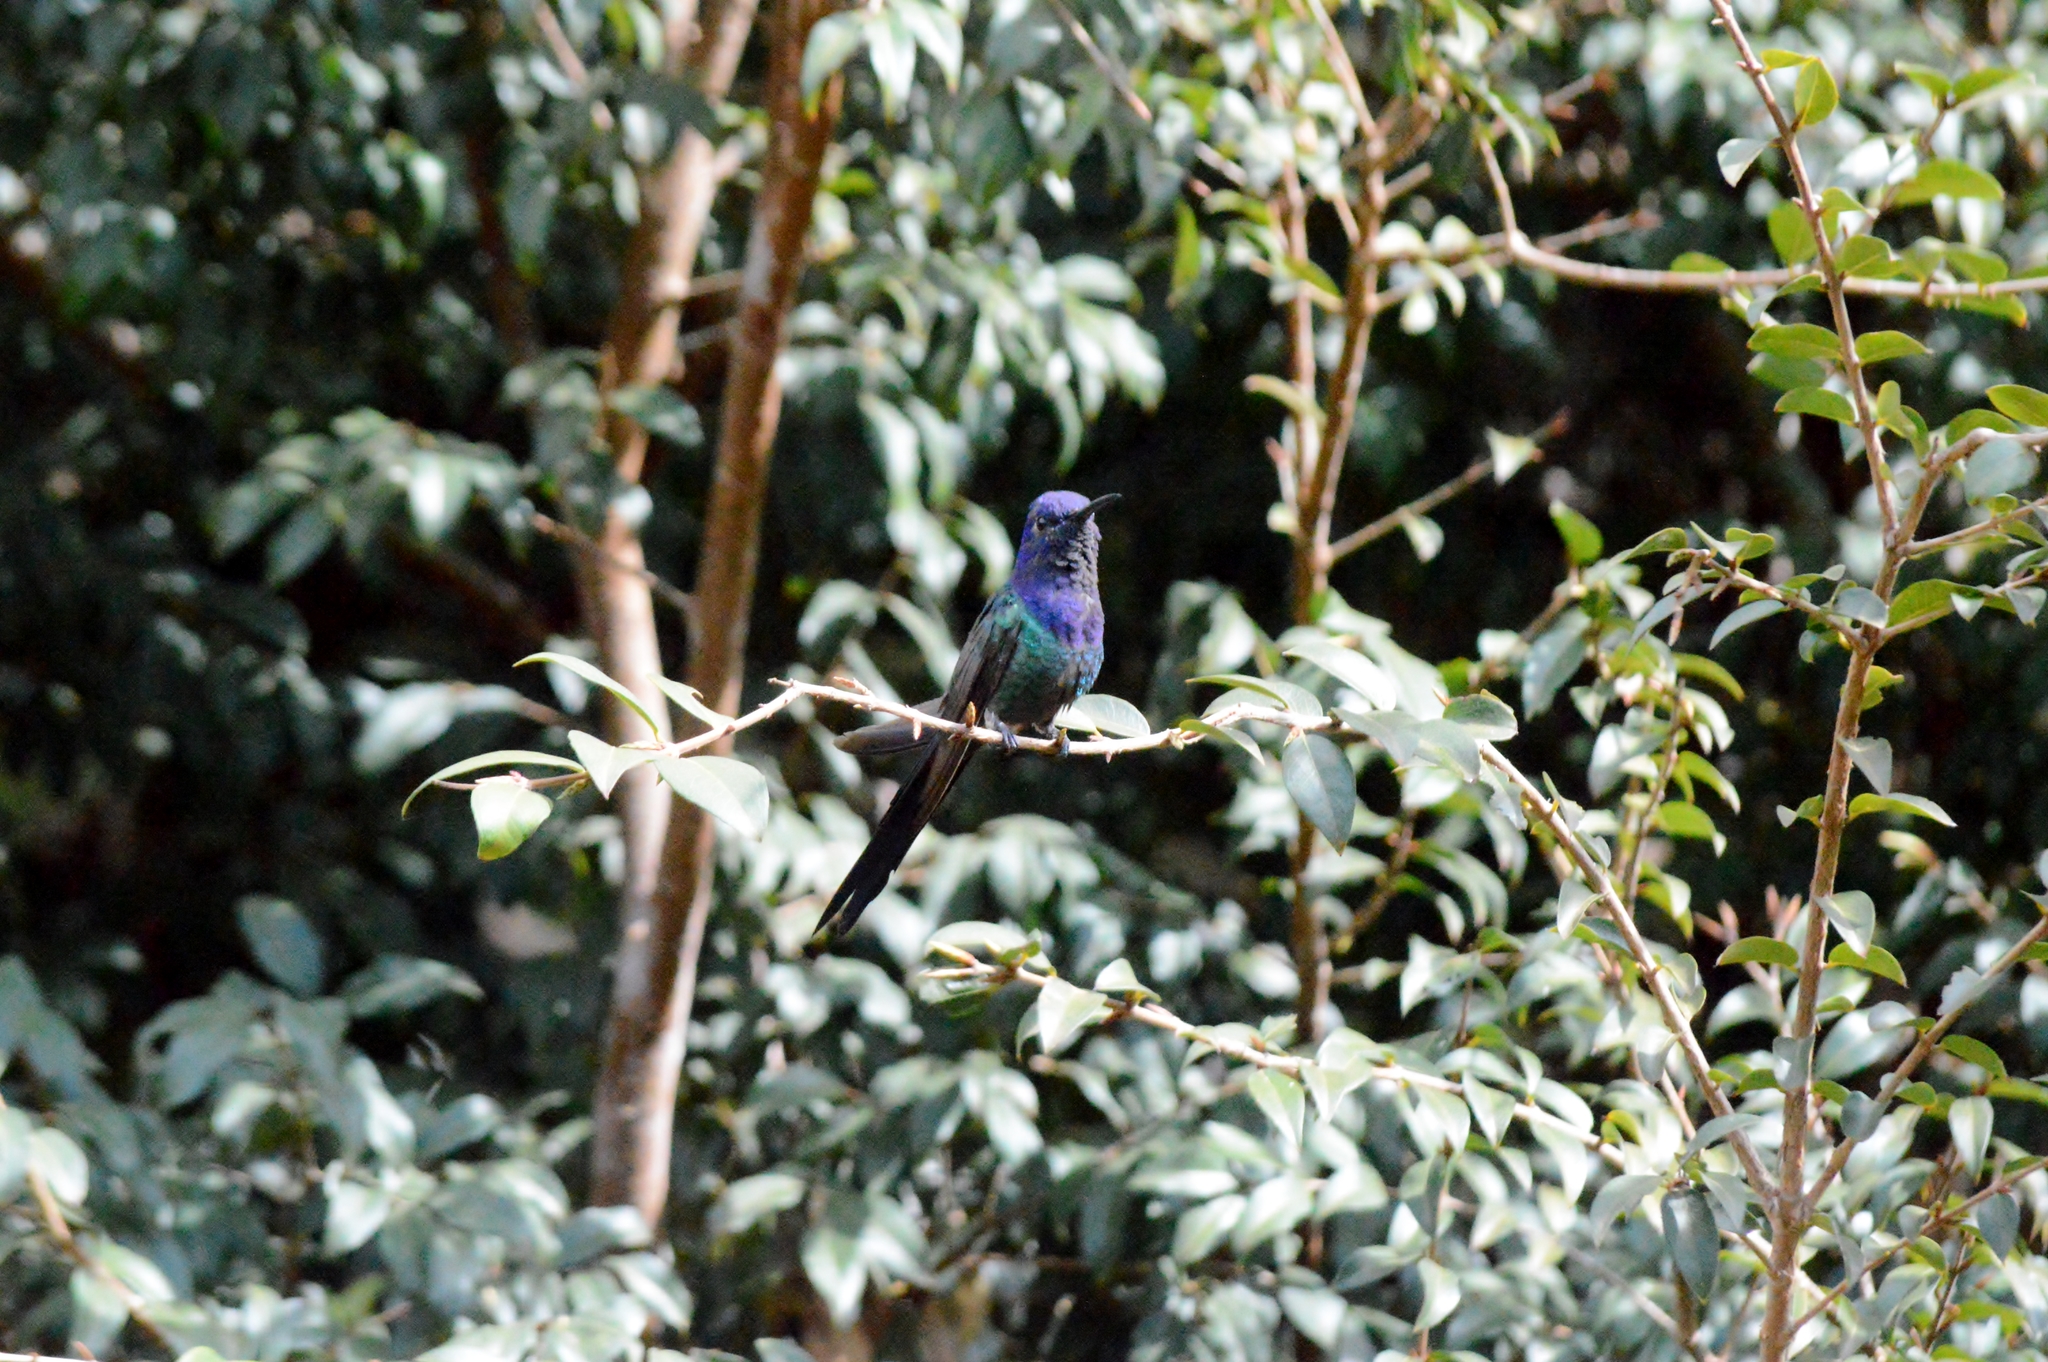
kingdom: Animalia
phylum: Chordata
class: Aves
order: Apodiformes
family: Trochilidae
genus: Eupetomena
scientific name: Eupetomena macroura
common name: Swallow-tailed hummingbird
